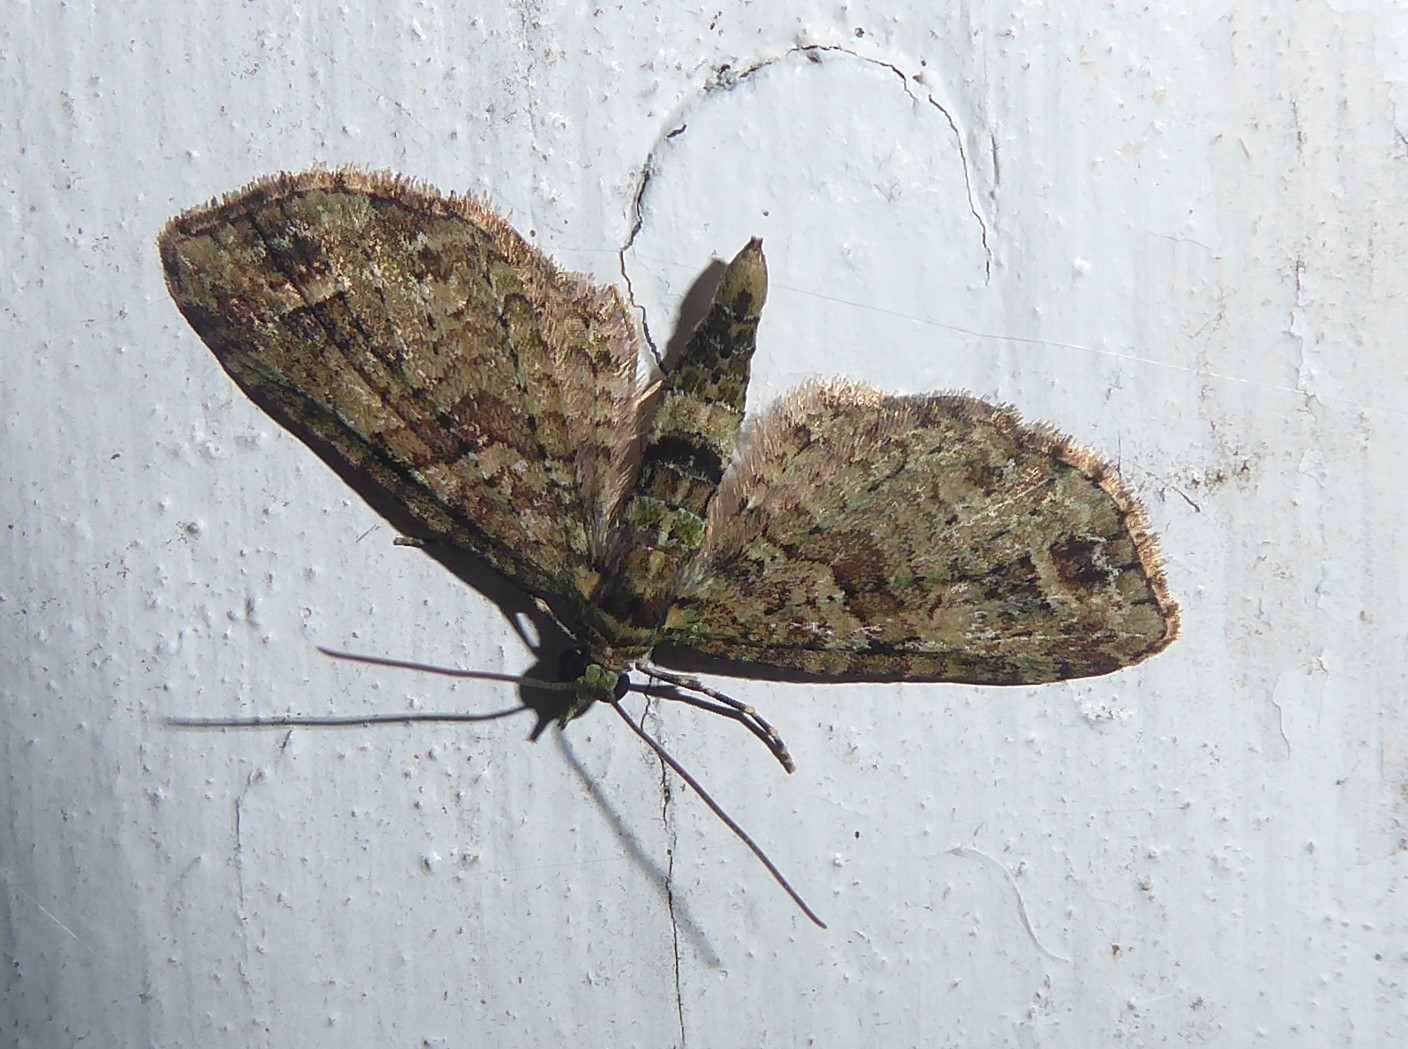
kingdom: Animalia
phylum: Arthropoda
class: Insecta
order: Lepidoptera
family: Geometridae
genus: Idaea
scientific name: Idaea mutanda
